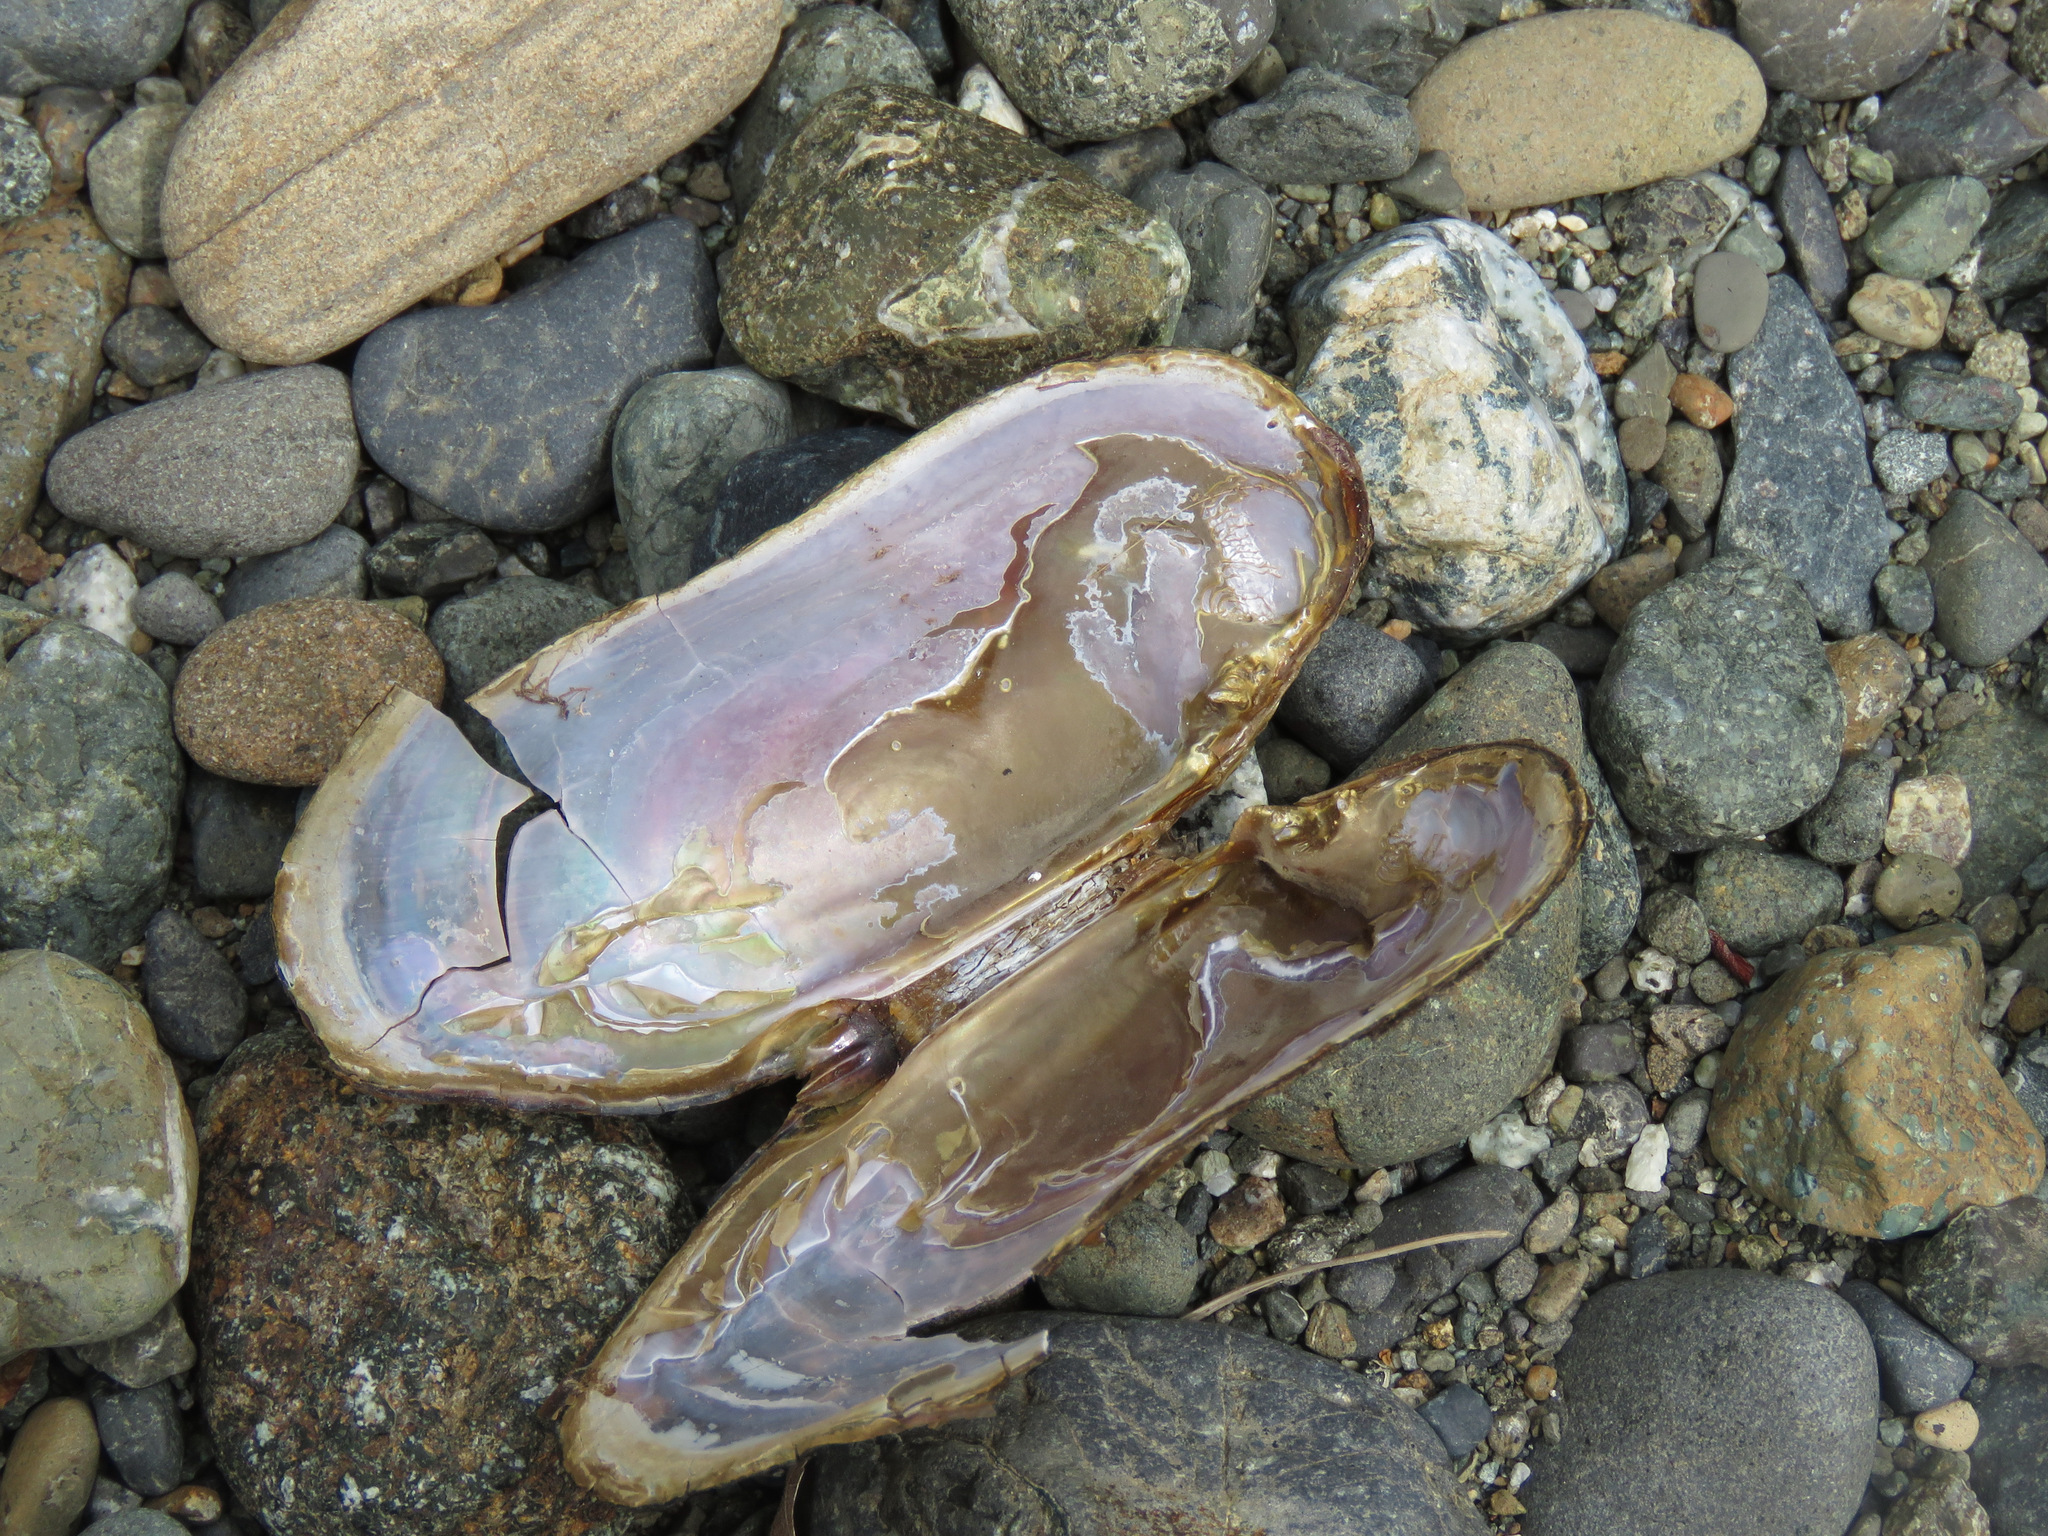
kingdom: Animalia
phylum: Mollusca
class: Bivalvia
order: Unionida
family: Margaritiferidae
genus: Margaritifera
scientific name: Margaritifera falcata
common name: Western pearlshell
